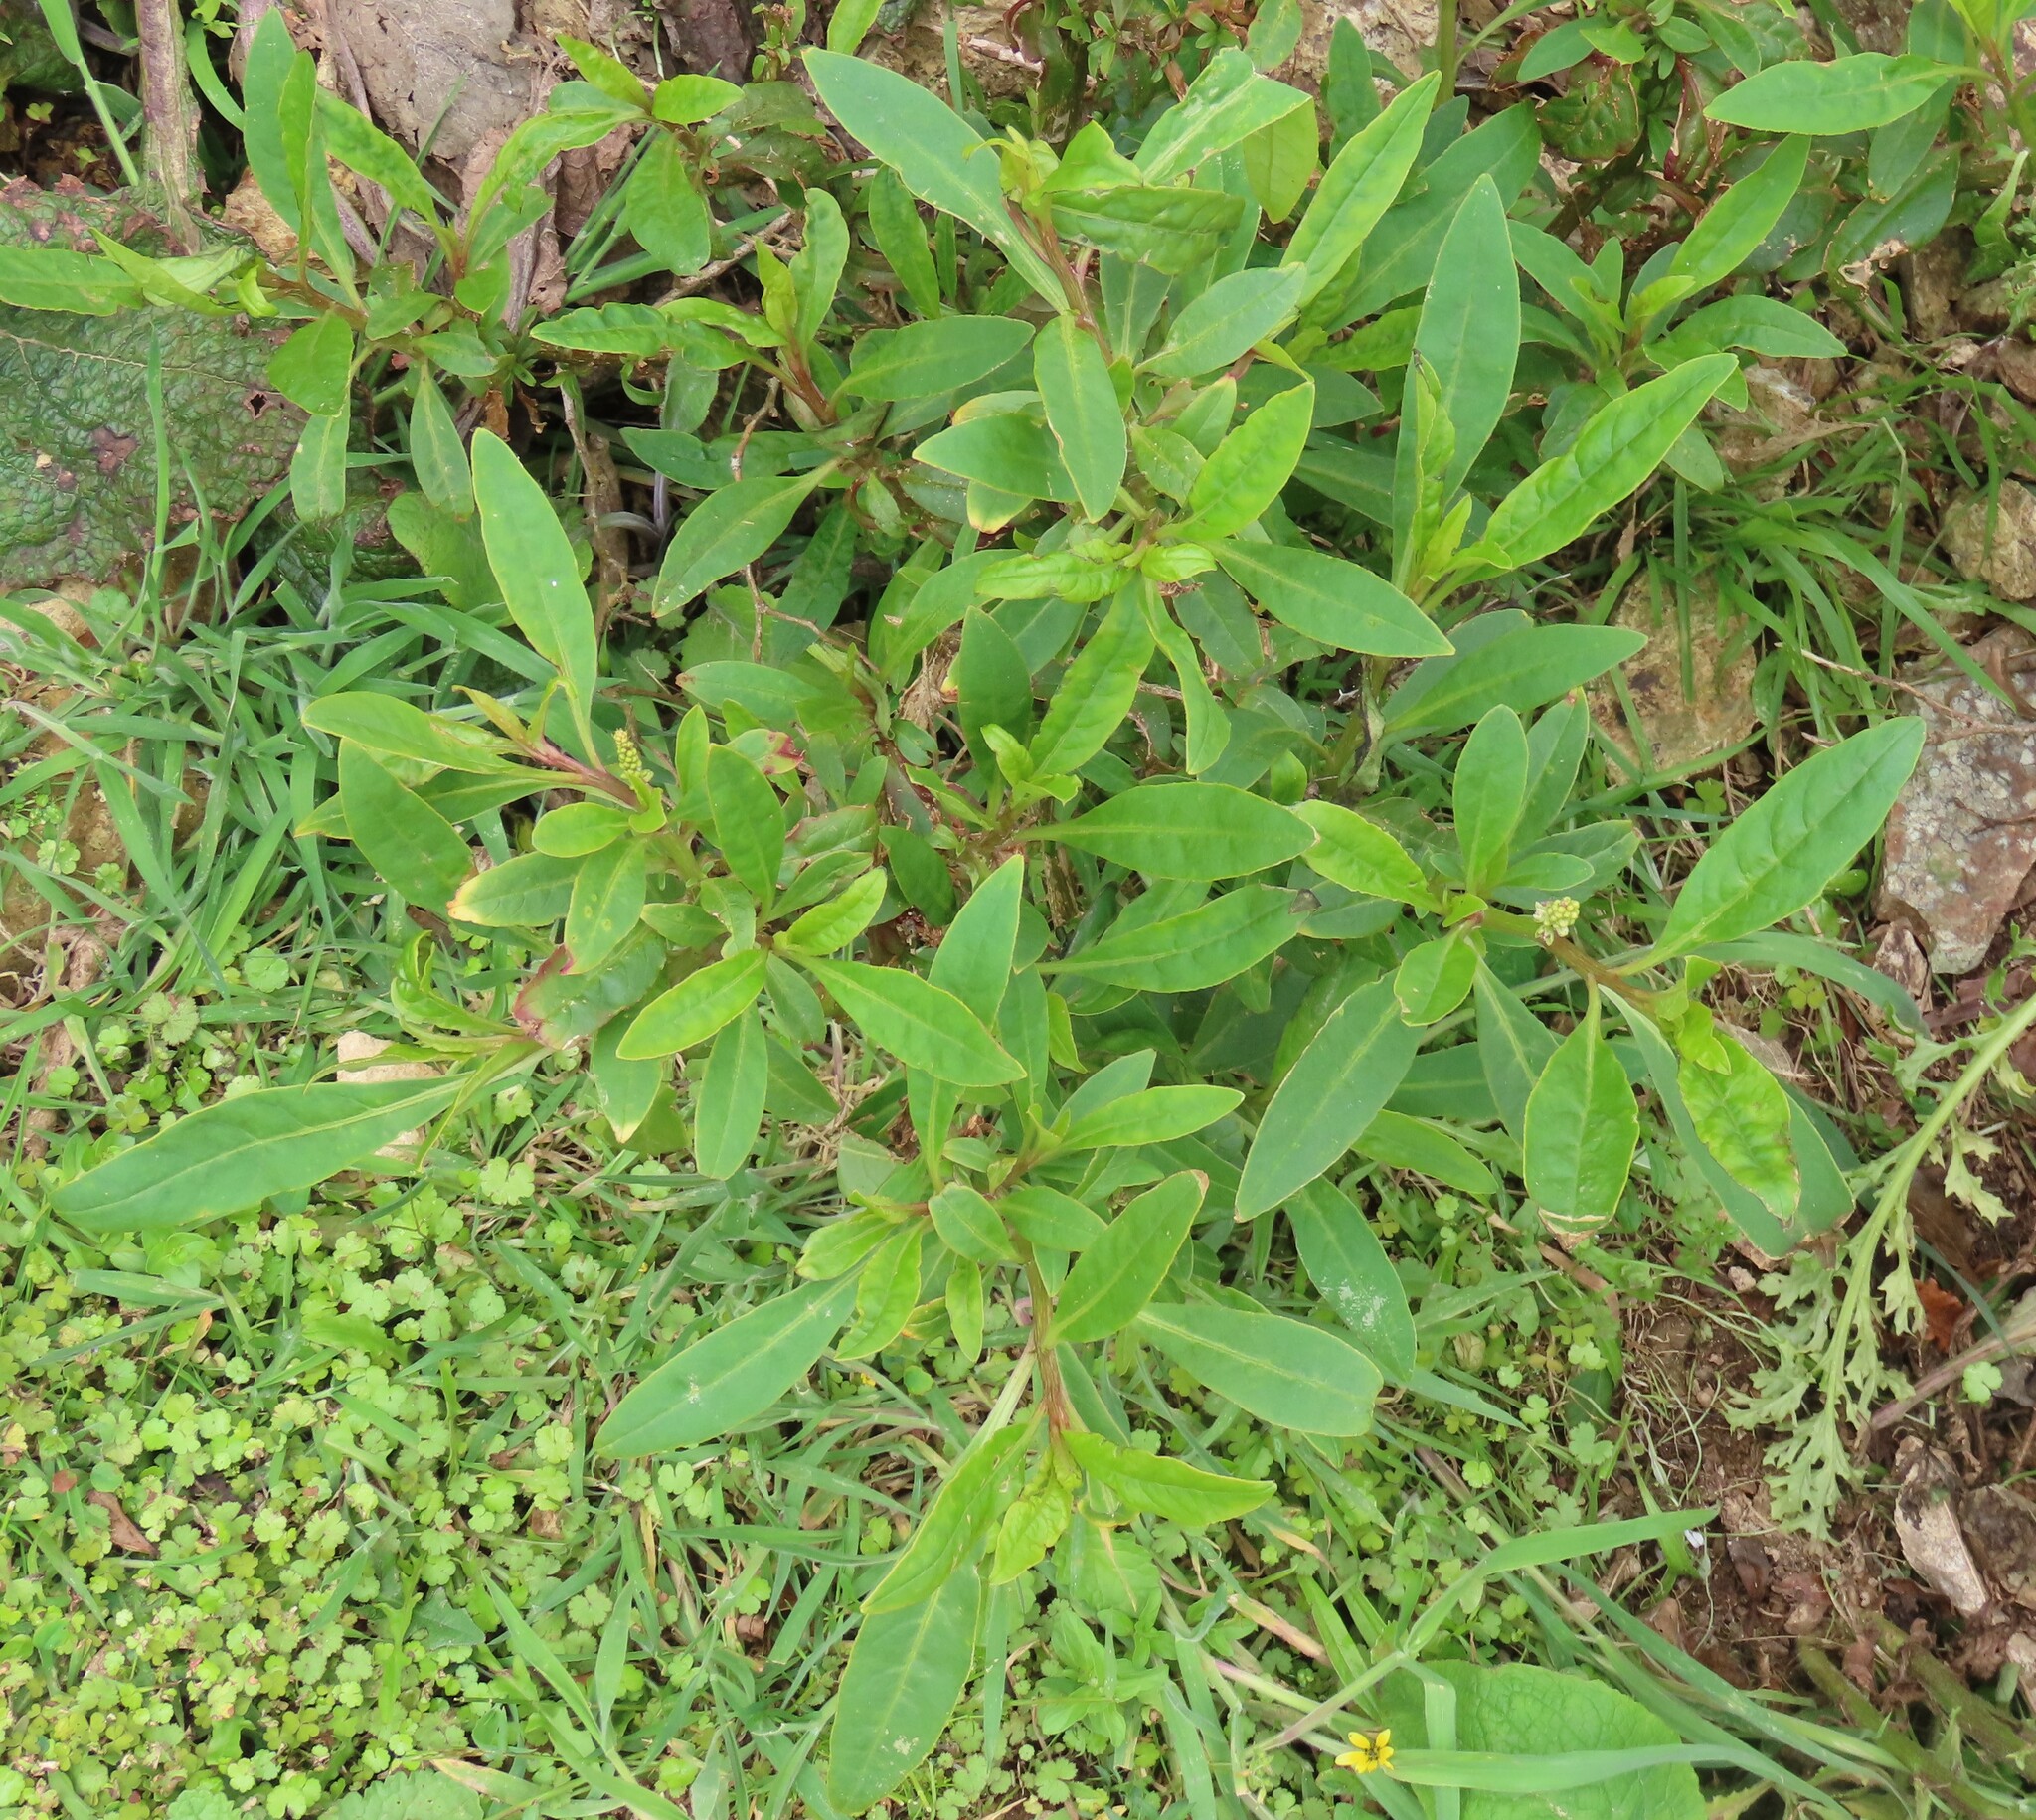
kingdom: Plantae
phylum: Tracheophyta
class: Magnoliopsida
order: Caryophyllales
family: Phytolaccaceae
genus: Phytolacca
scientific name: Phytolacca icosandra
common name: Button pokeweed
